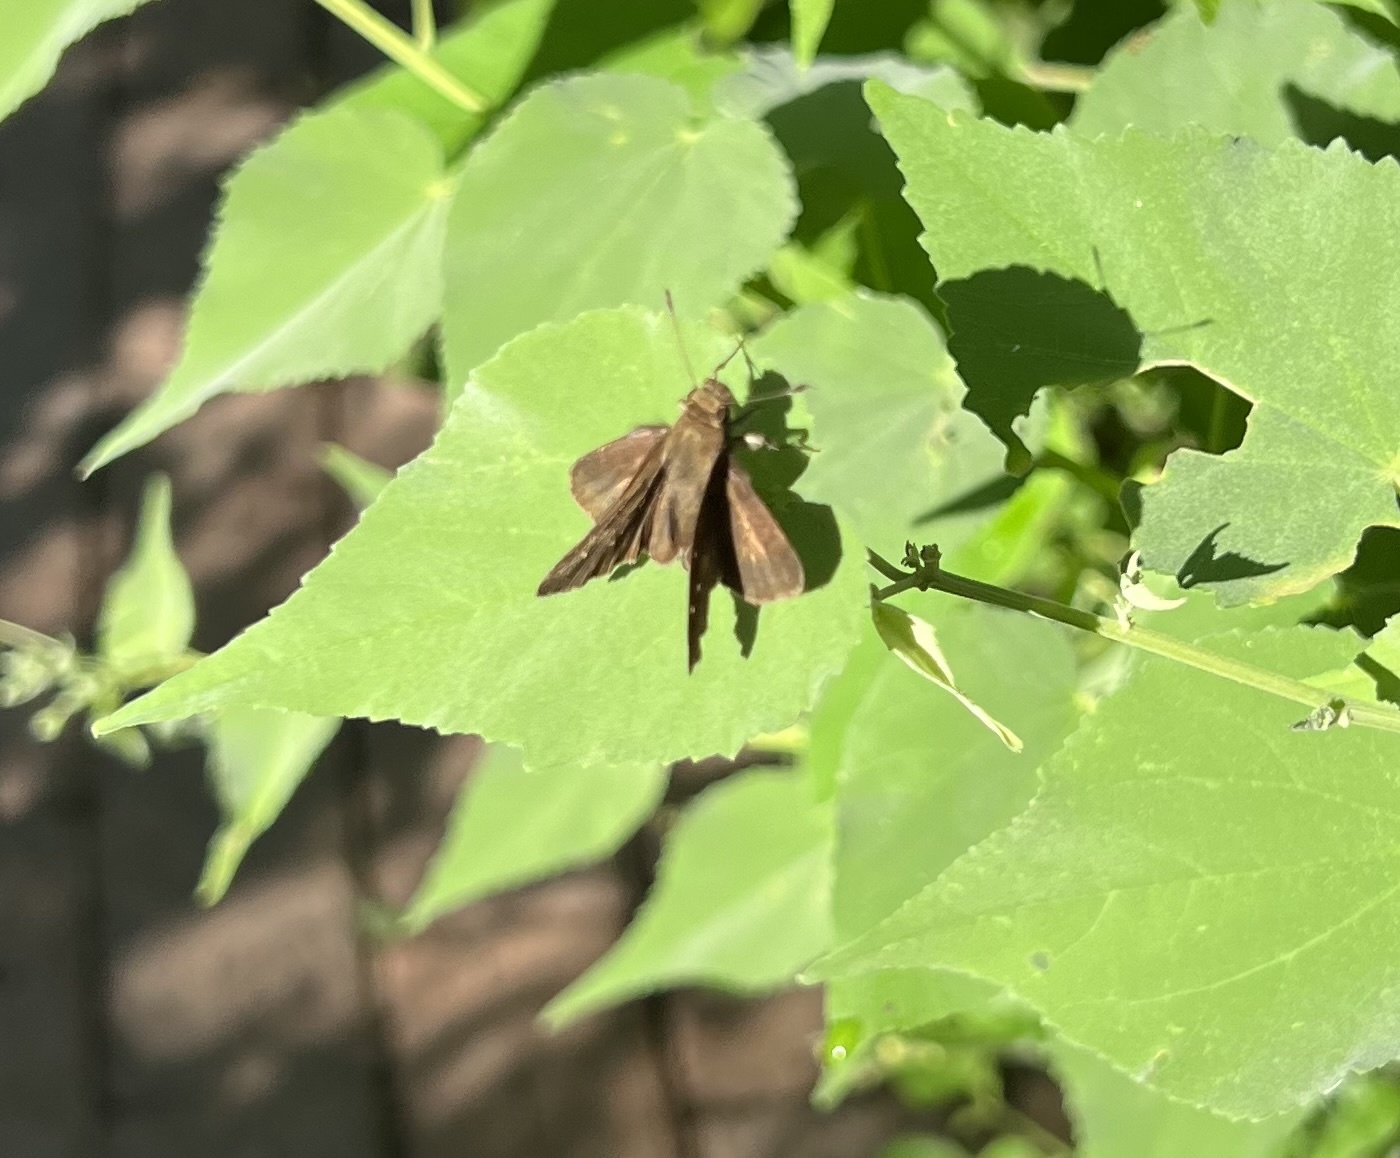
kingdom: Animalia
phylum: Arthropoda
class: Insecta
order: Lepidoptera
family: Hesperiidae
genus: Lerema
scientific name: Lerema accius
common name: Clouded skipper
